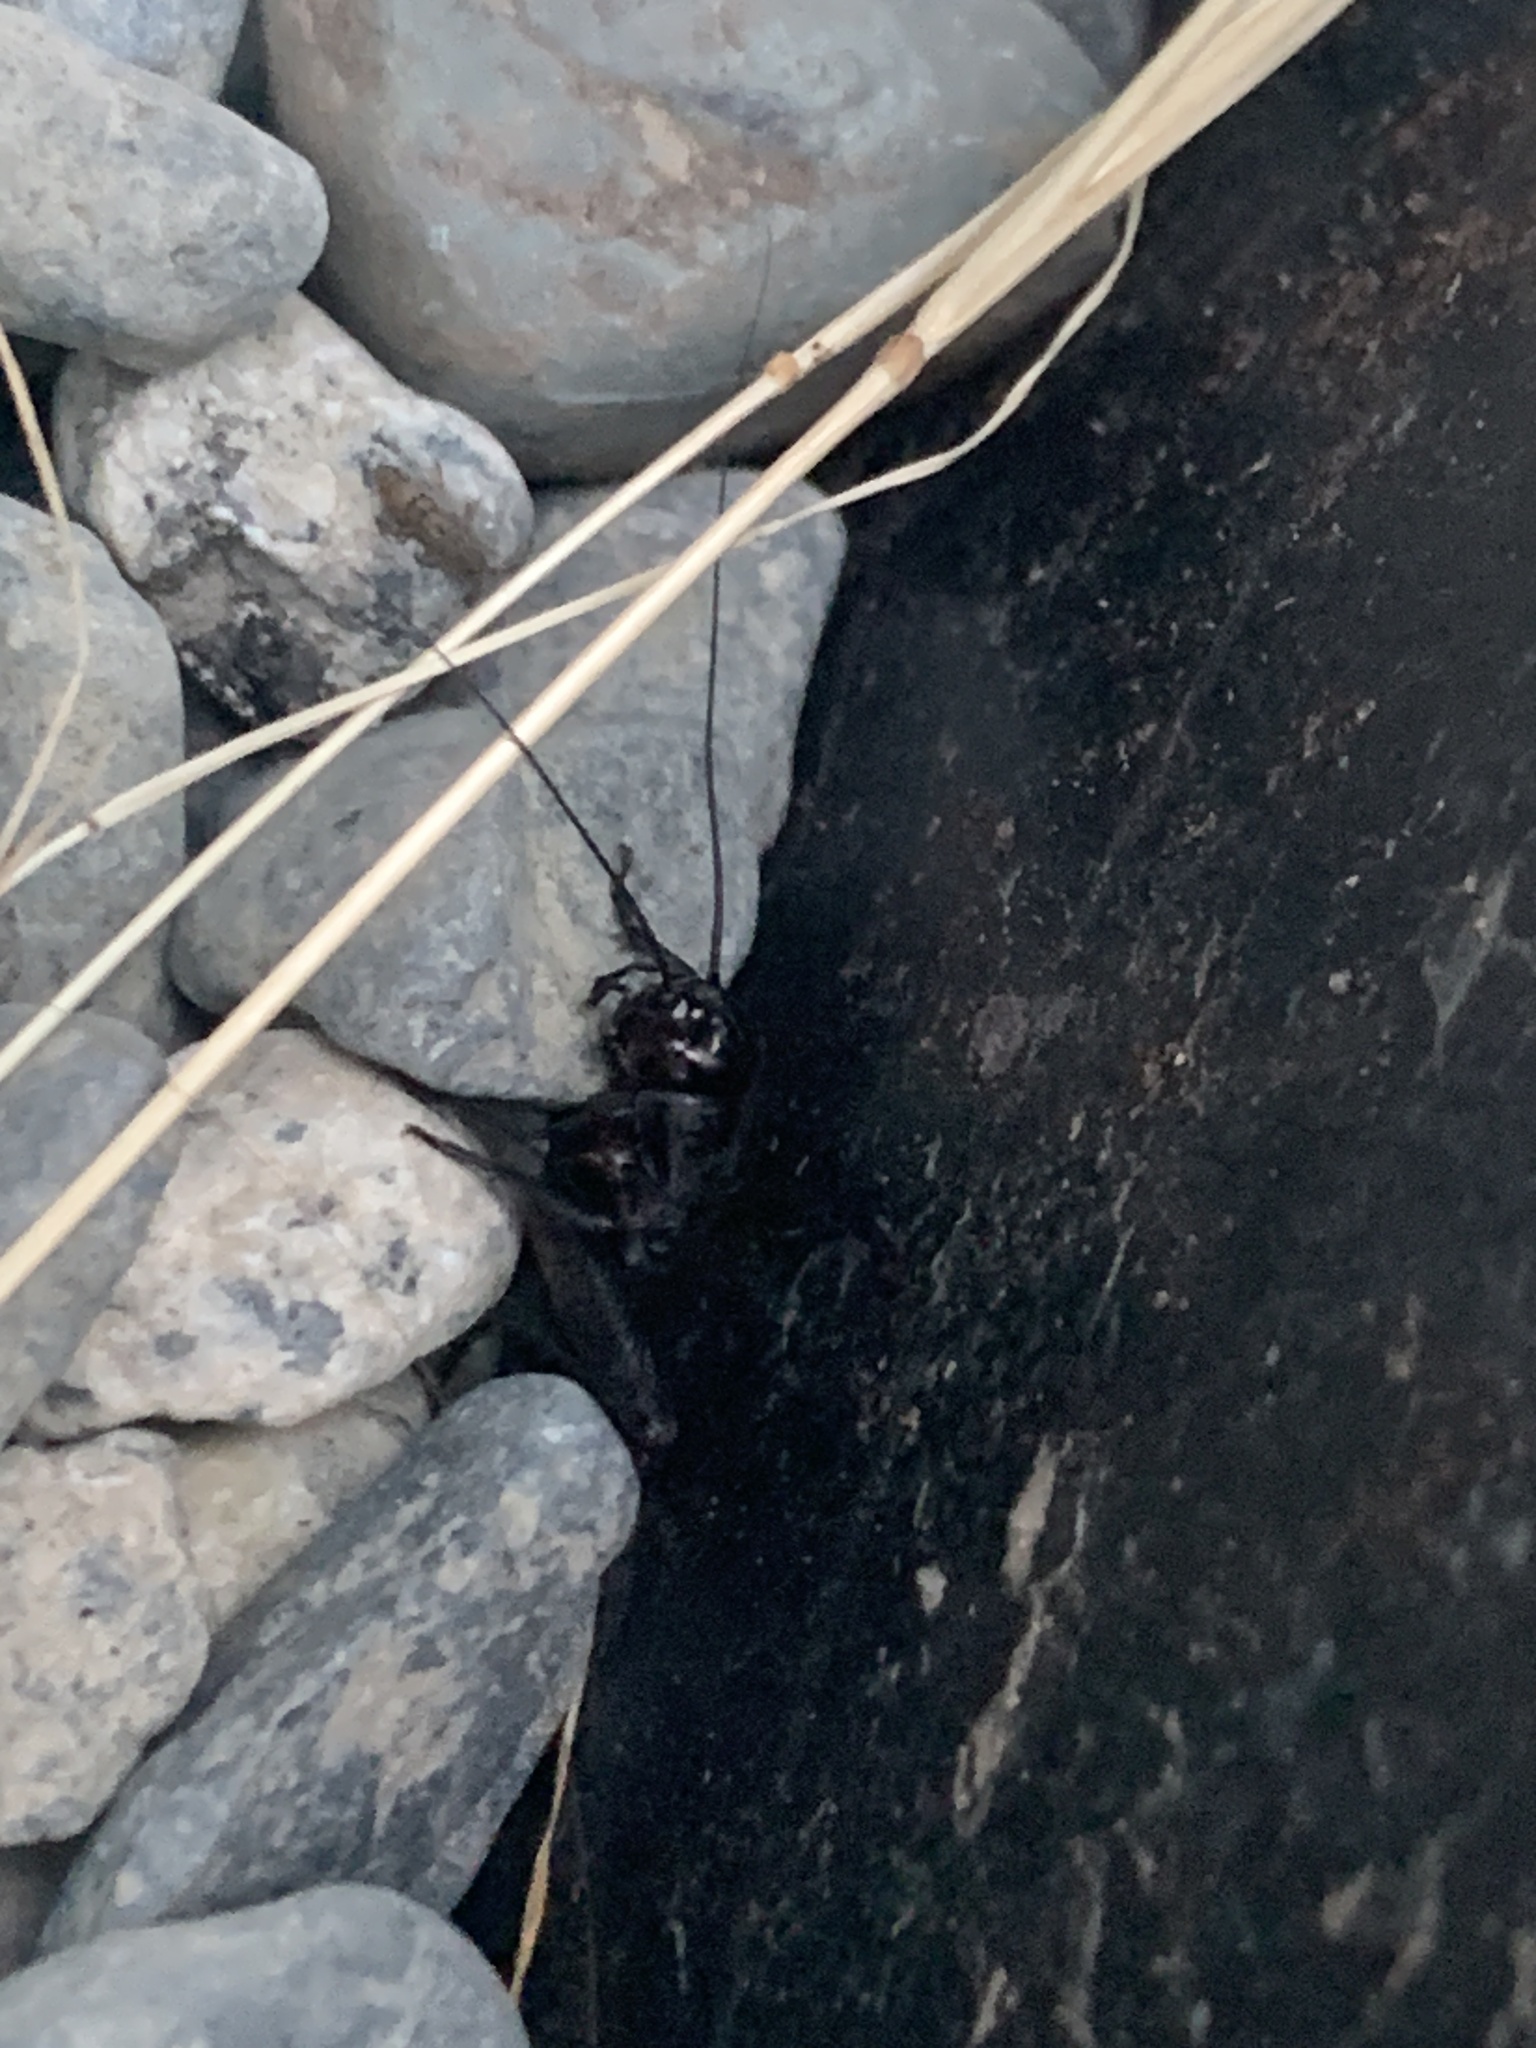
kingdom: Animalia
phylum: Arthropoda
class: Insecta
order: Orthoptera
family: Gryllidae
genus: Gryllus
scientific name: Gryllus pennsylvanicus
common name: Fall field cricket
